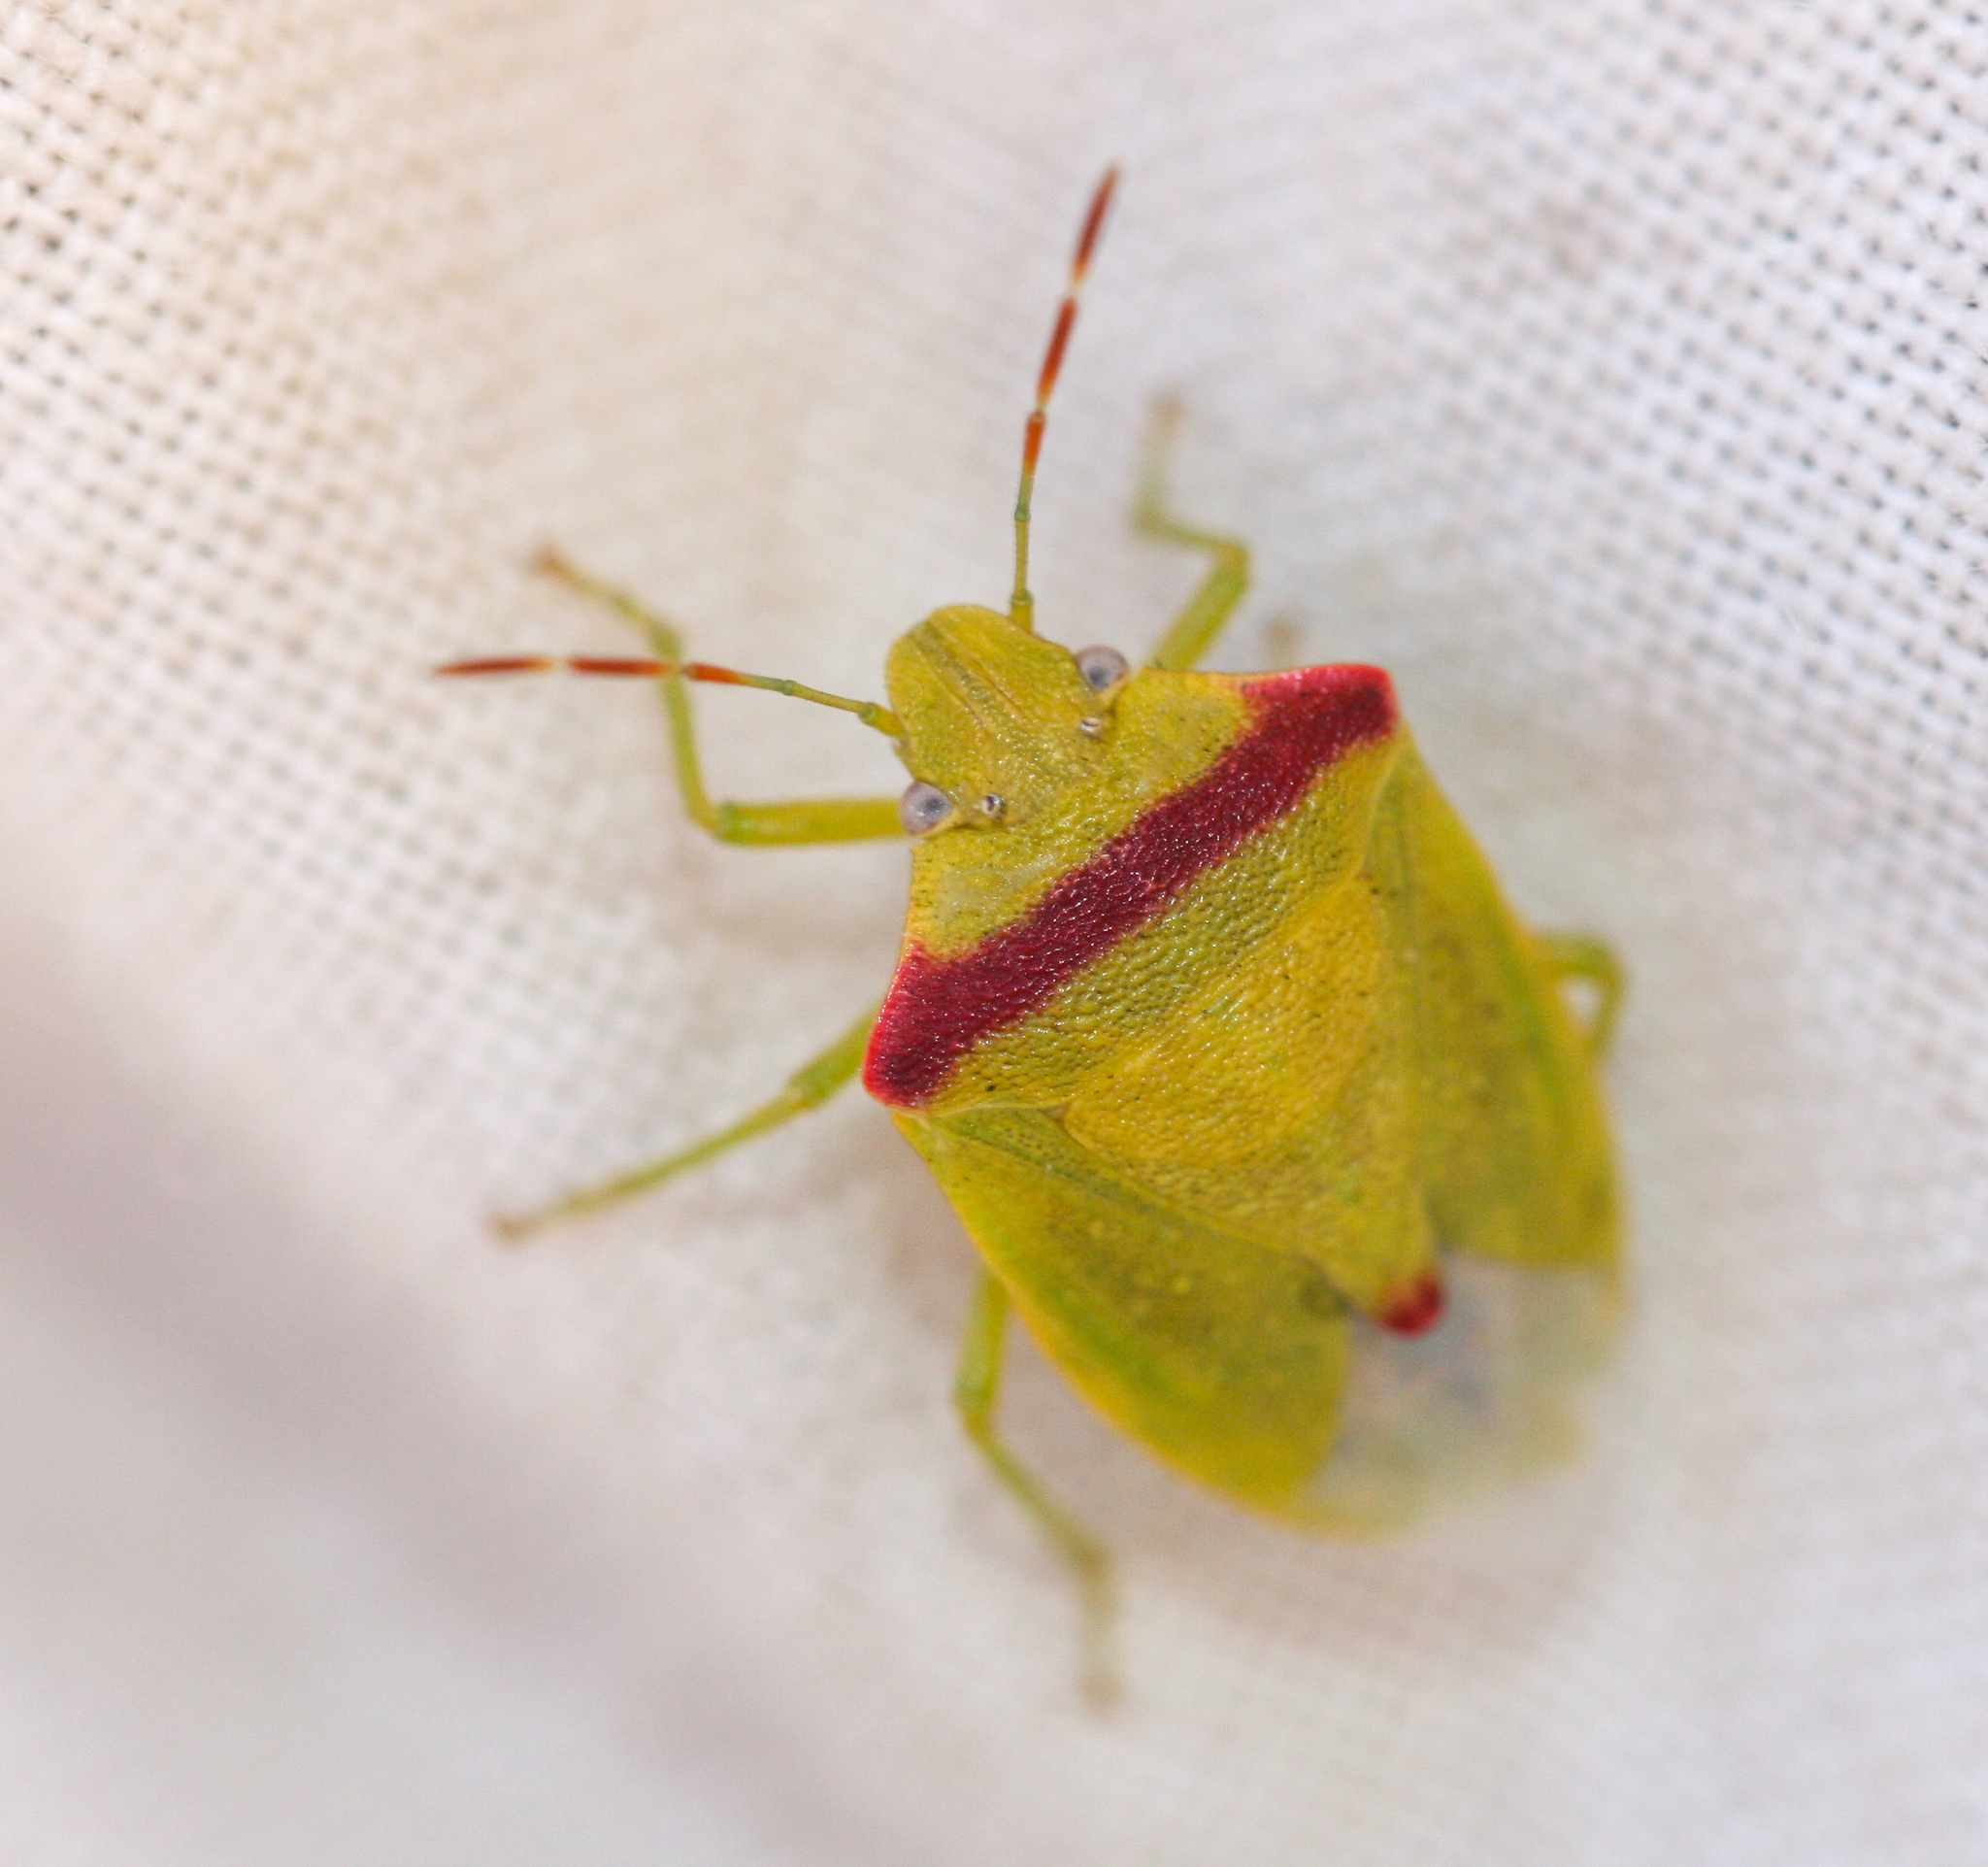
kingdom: Animalia
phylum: Arthropoda
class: Insecta
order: Hemiptera
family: Pentatomidae
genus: Thyanta
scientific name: Thyanta pallidovirens
